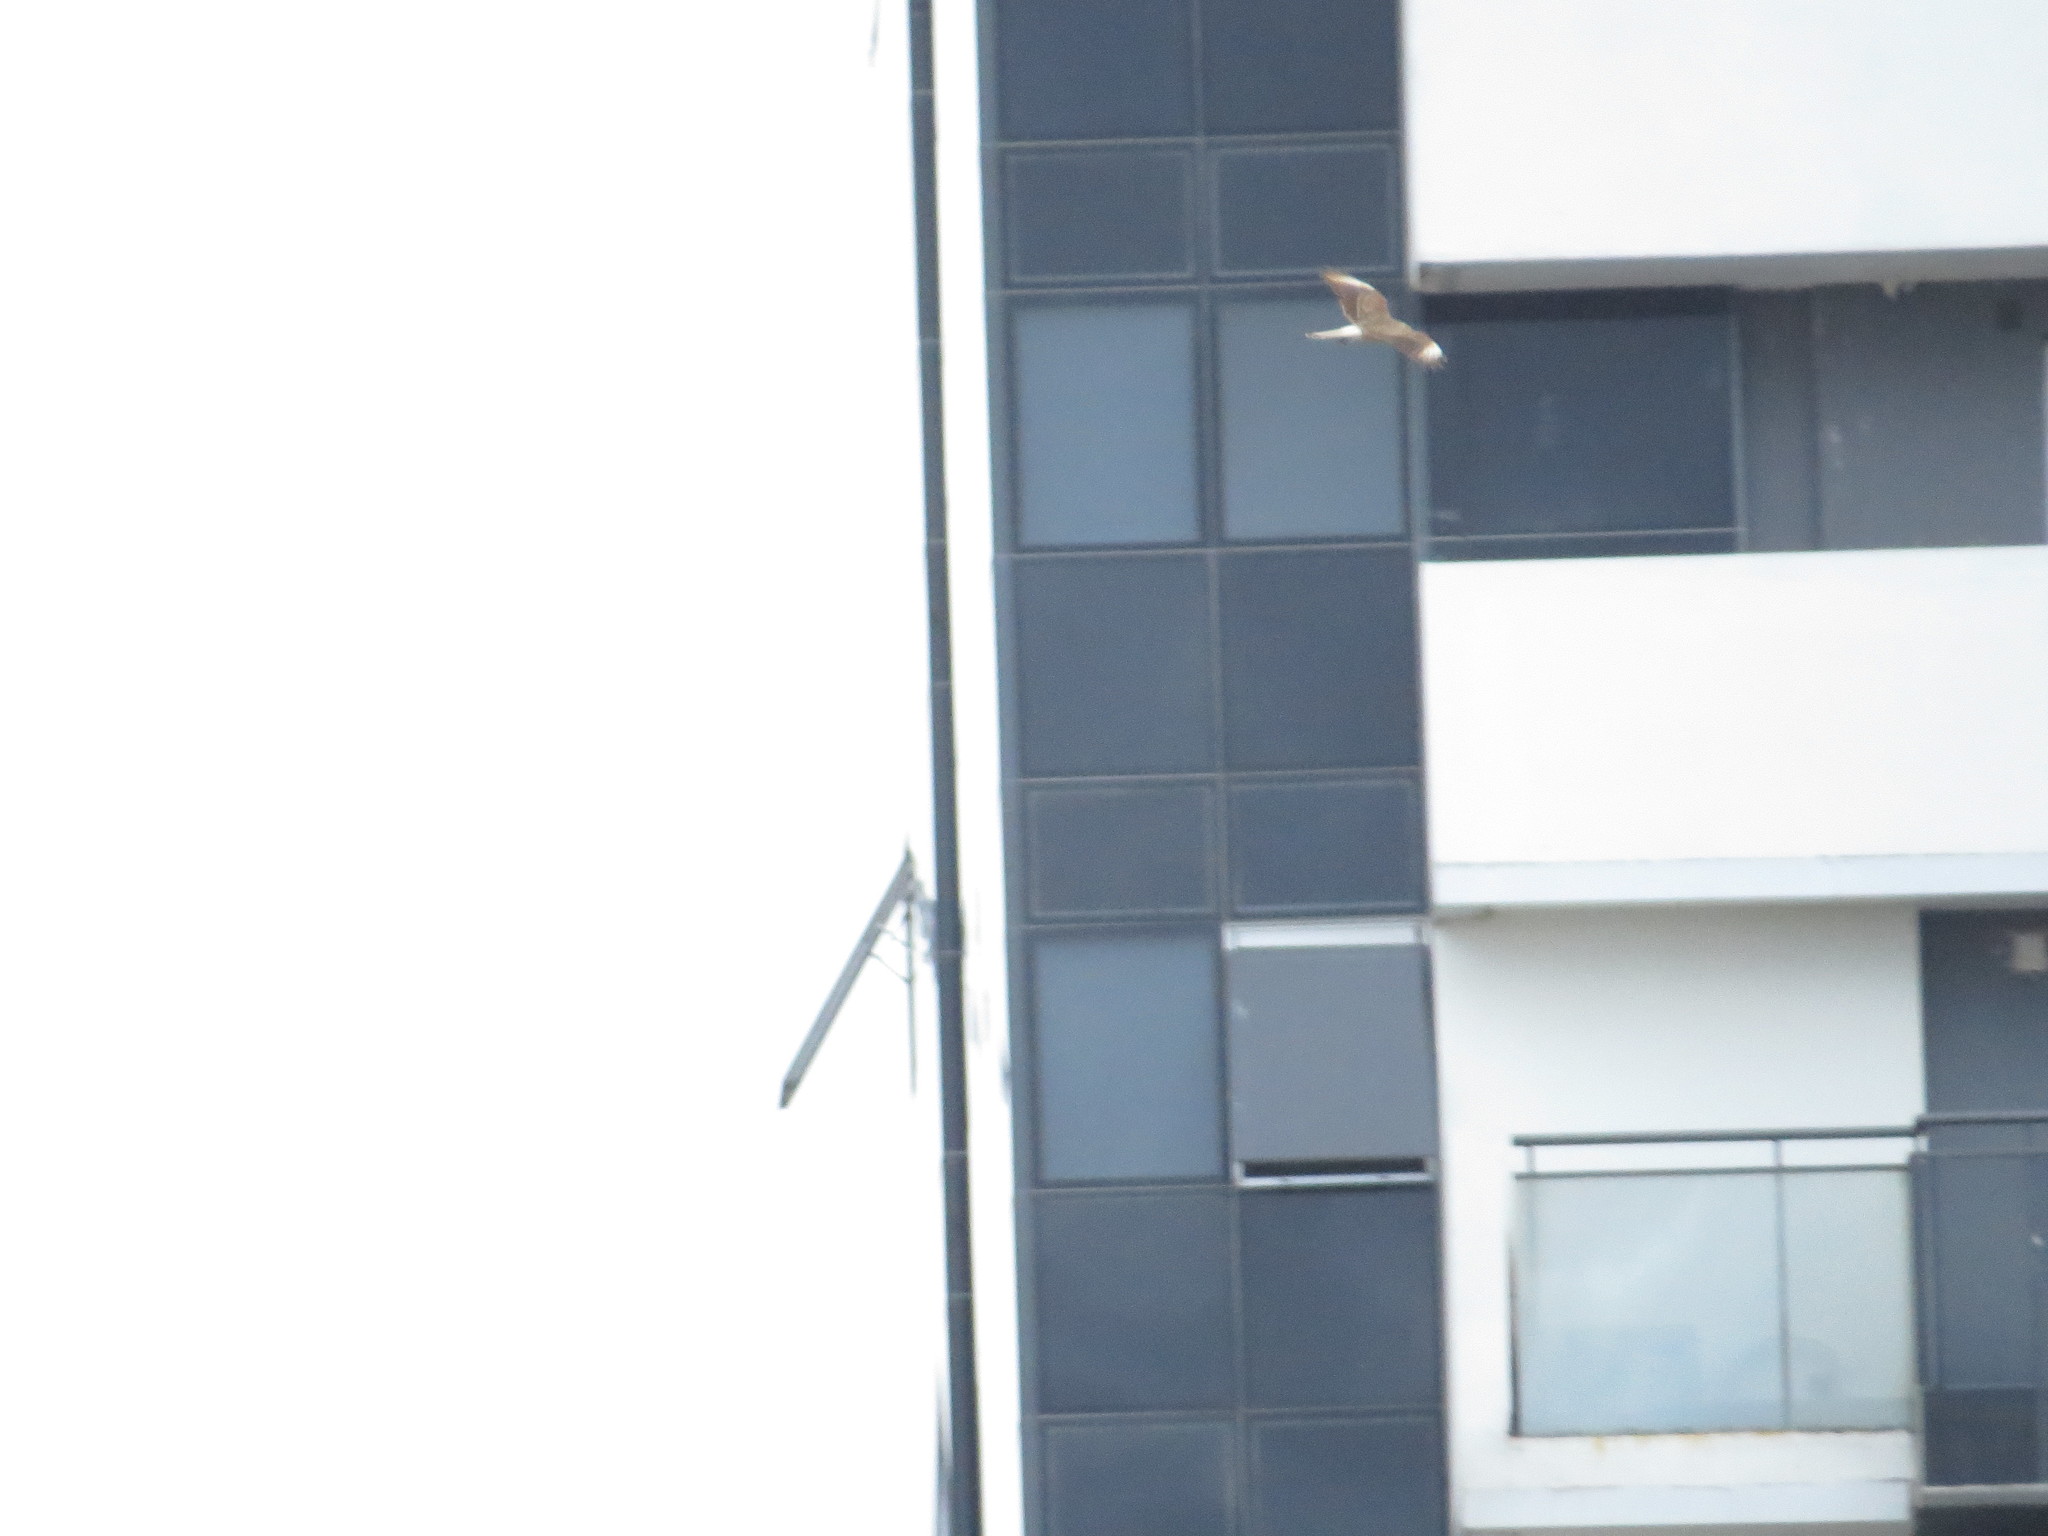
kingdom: Animalia
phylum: Chordata
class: Aves
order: Falconiformes
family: Falconidae
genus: Daptrius
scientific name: Daptrius
